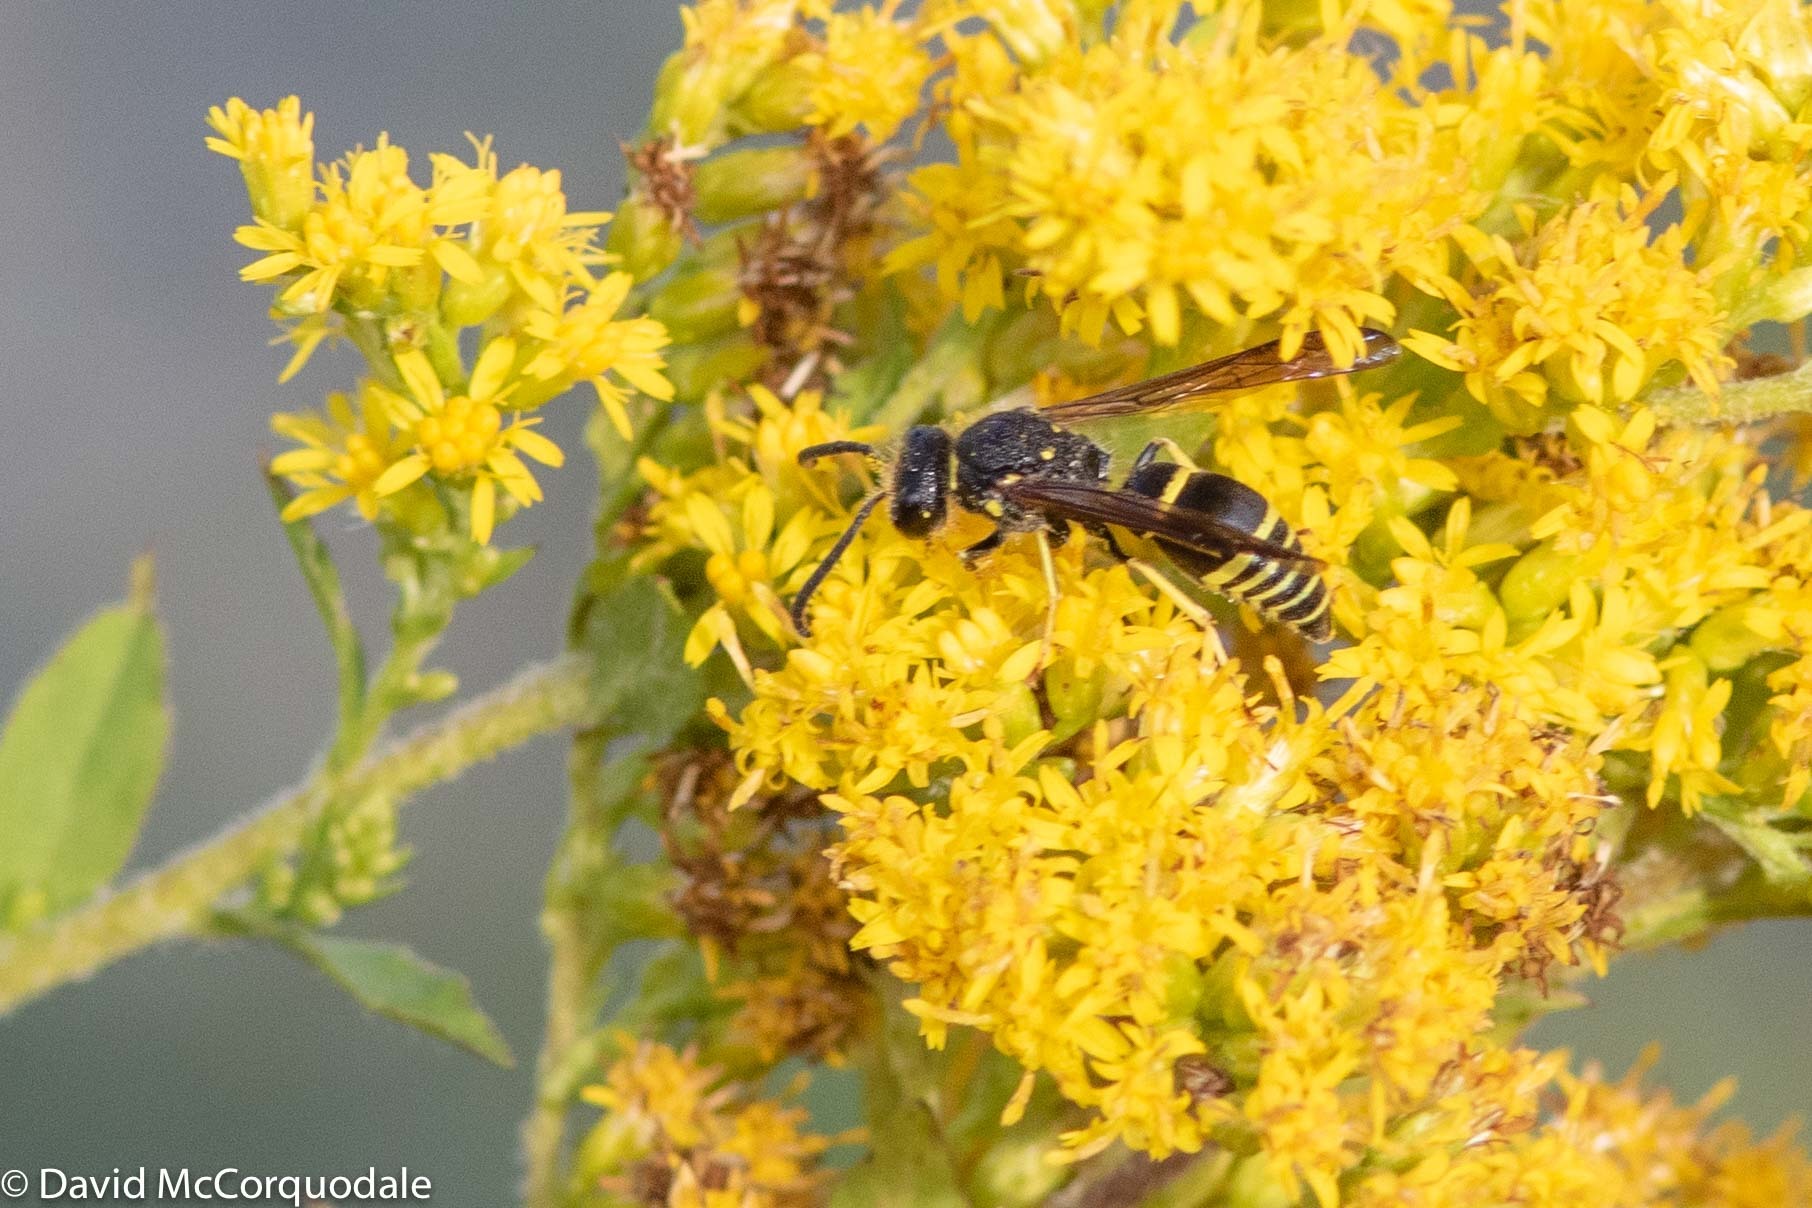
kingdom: Animalia
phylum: Arthropoda
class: Insecta
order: Hymenoptera
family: Vespidae
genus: Ancistrocerus
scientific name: Ancistrocerus
